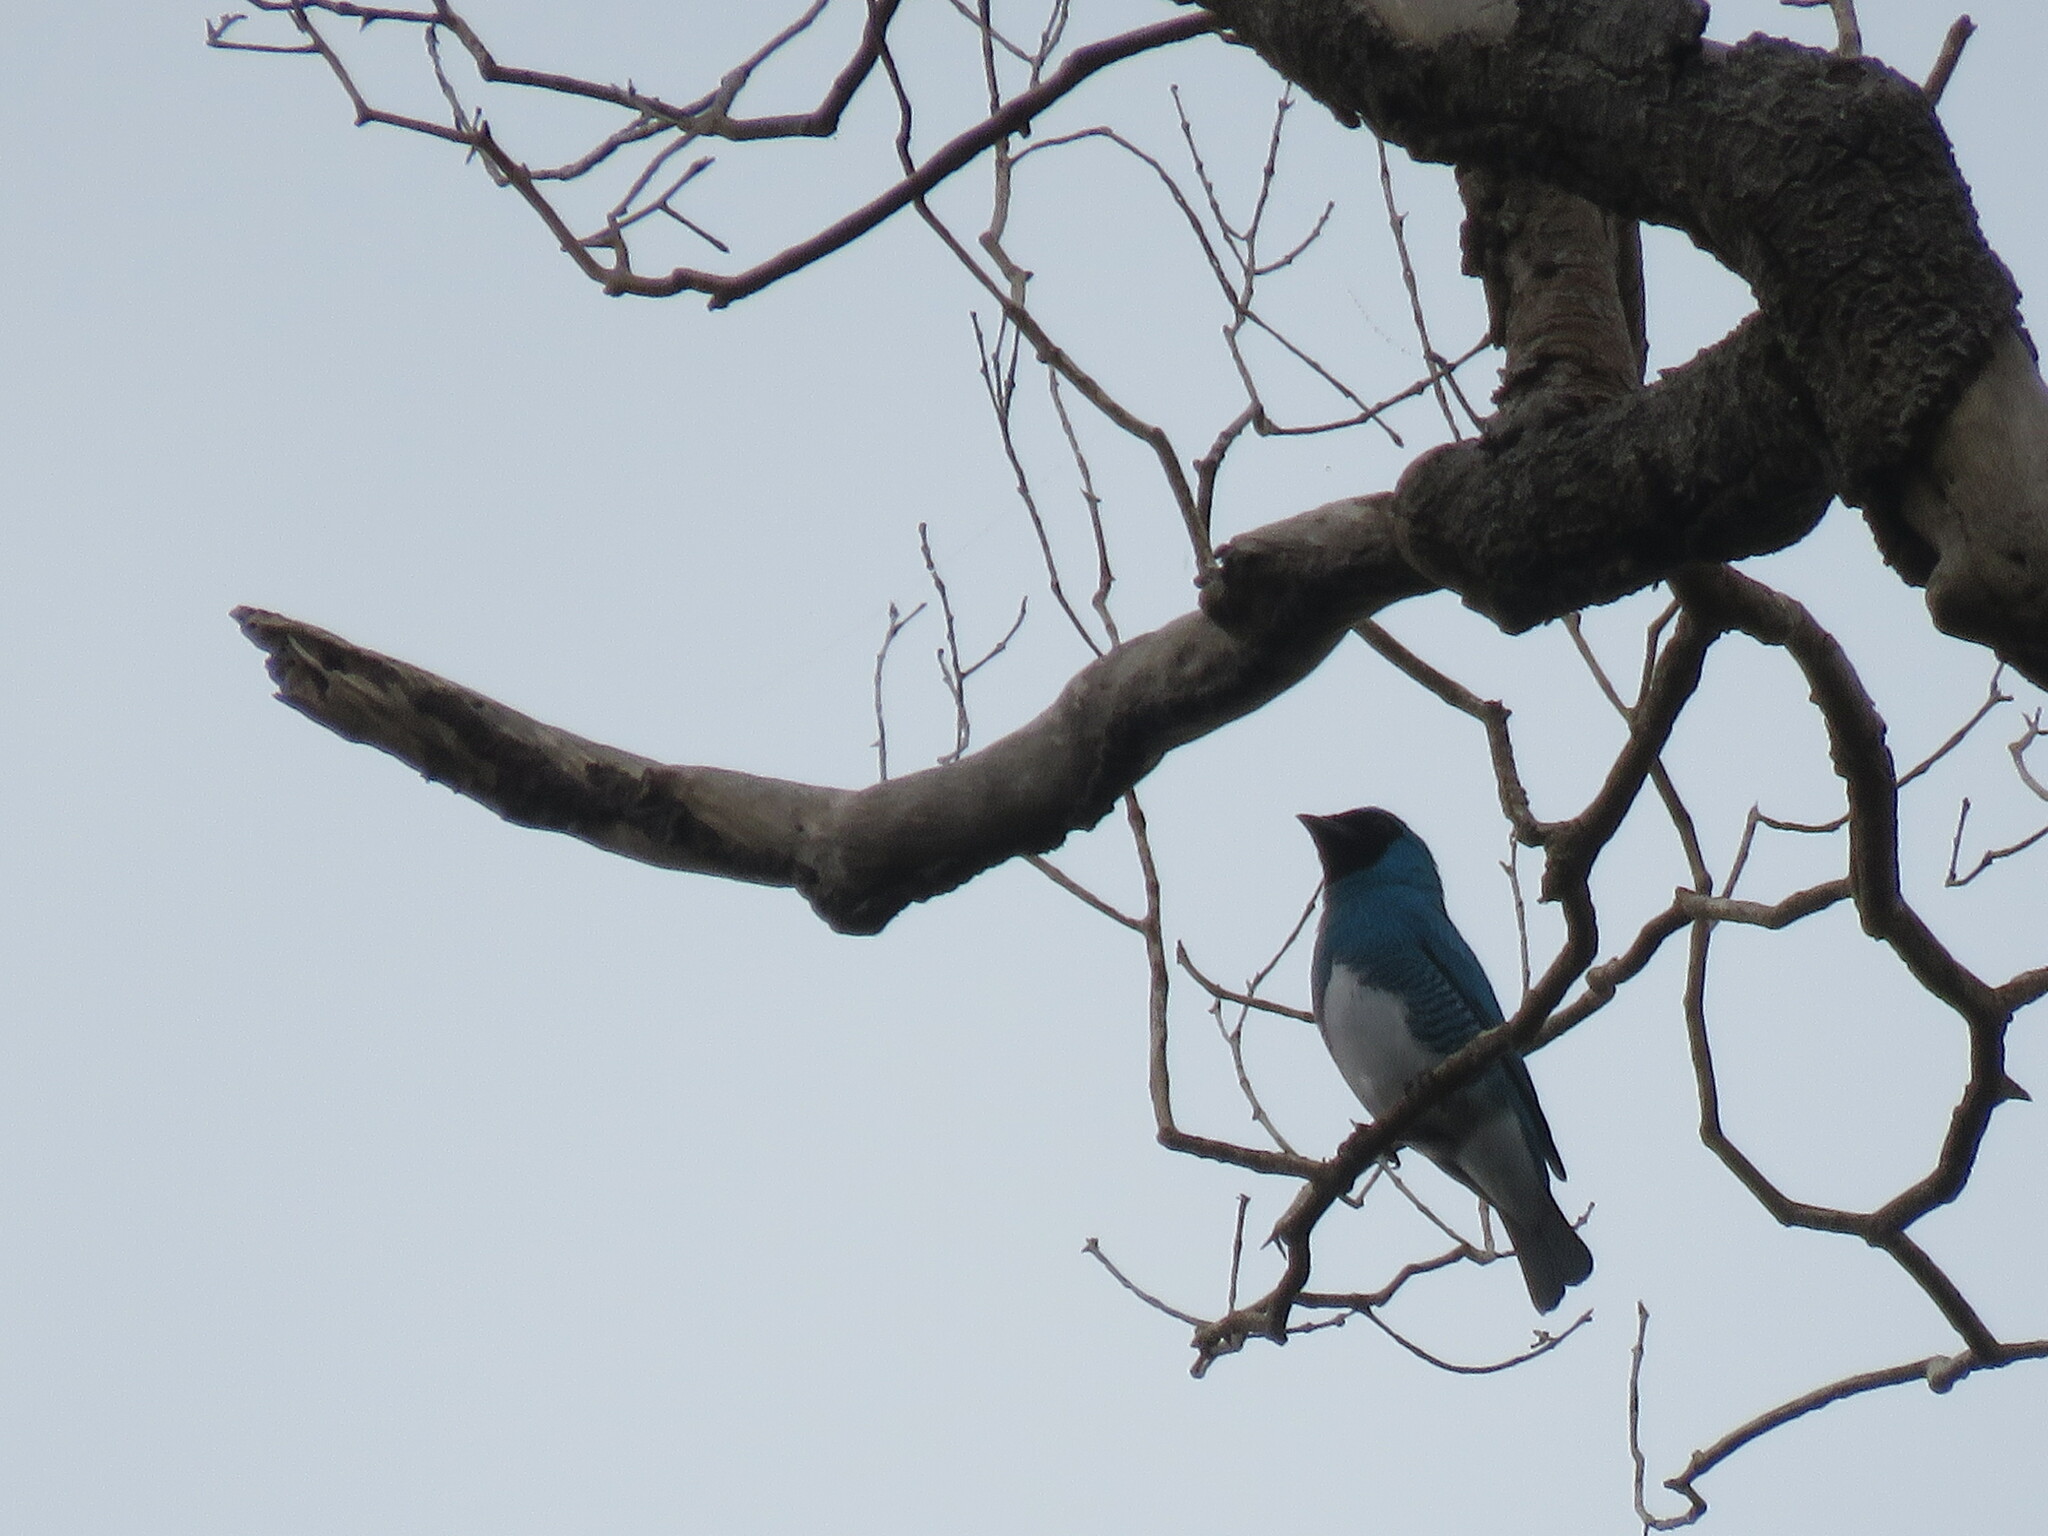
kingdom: Animalia
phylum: Chordata
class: Aves
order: Passeriformes
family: Thraupidae
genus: Tersina
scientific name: Tersina viridis
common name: Swallow tanager
